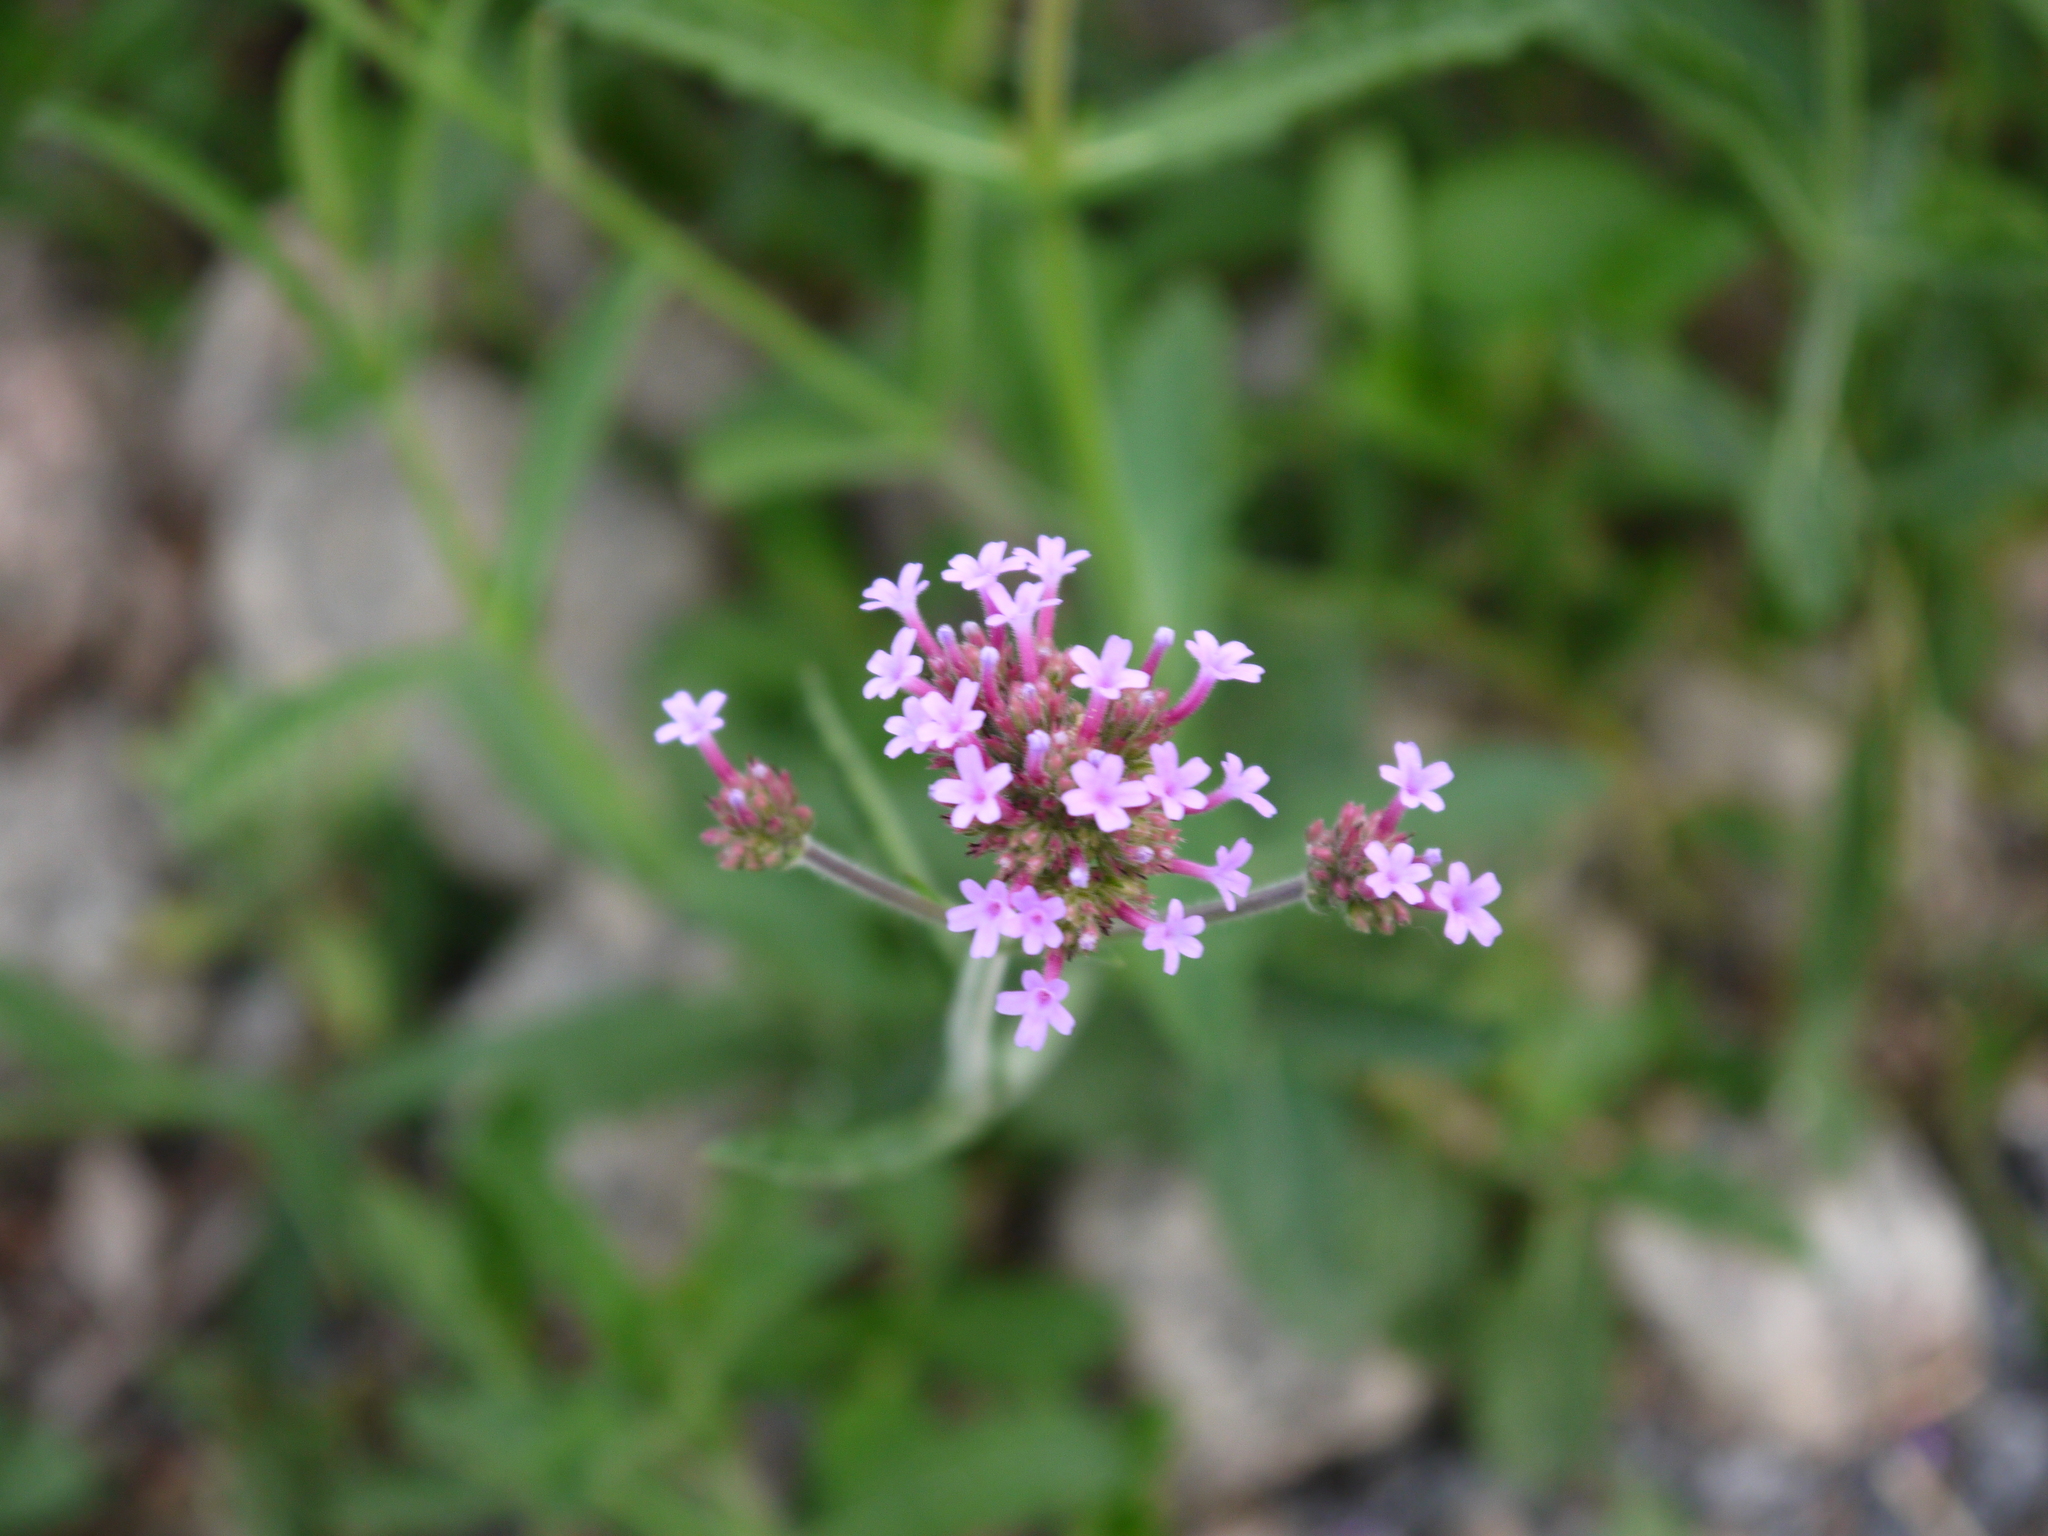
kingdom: Plantae
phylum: Tracheophyta
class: Magnoliopsida
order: Lamiales
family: Verbenaceae
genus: Verbena
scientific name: Verbena bonariensis
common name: Purpletop vervain
